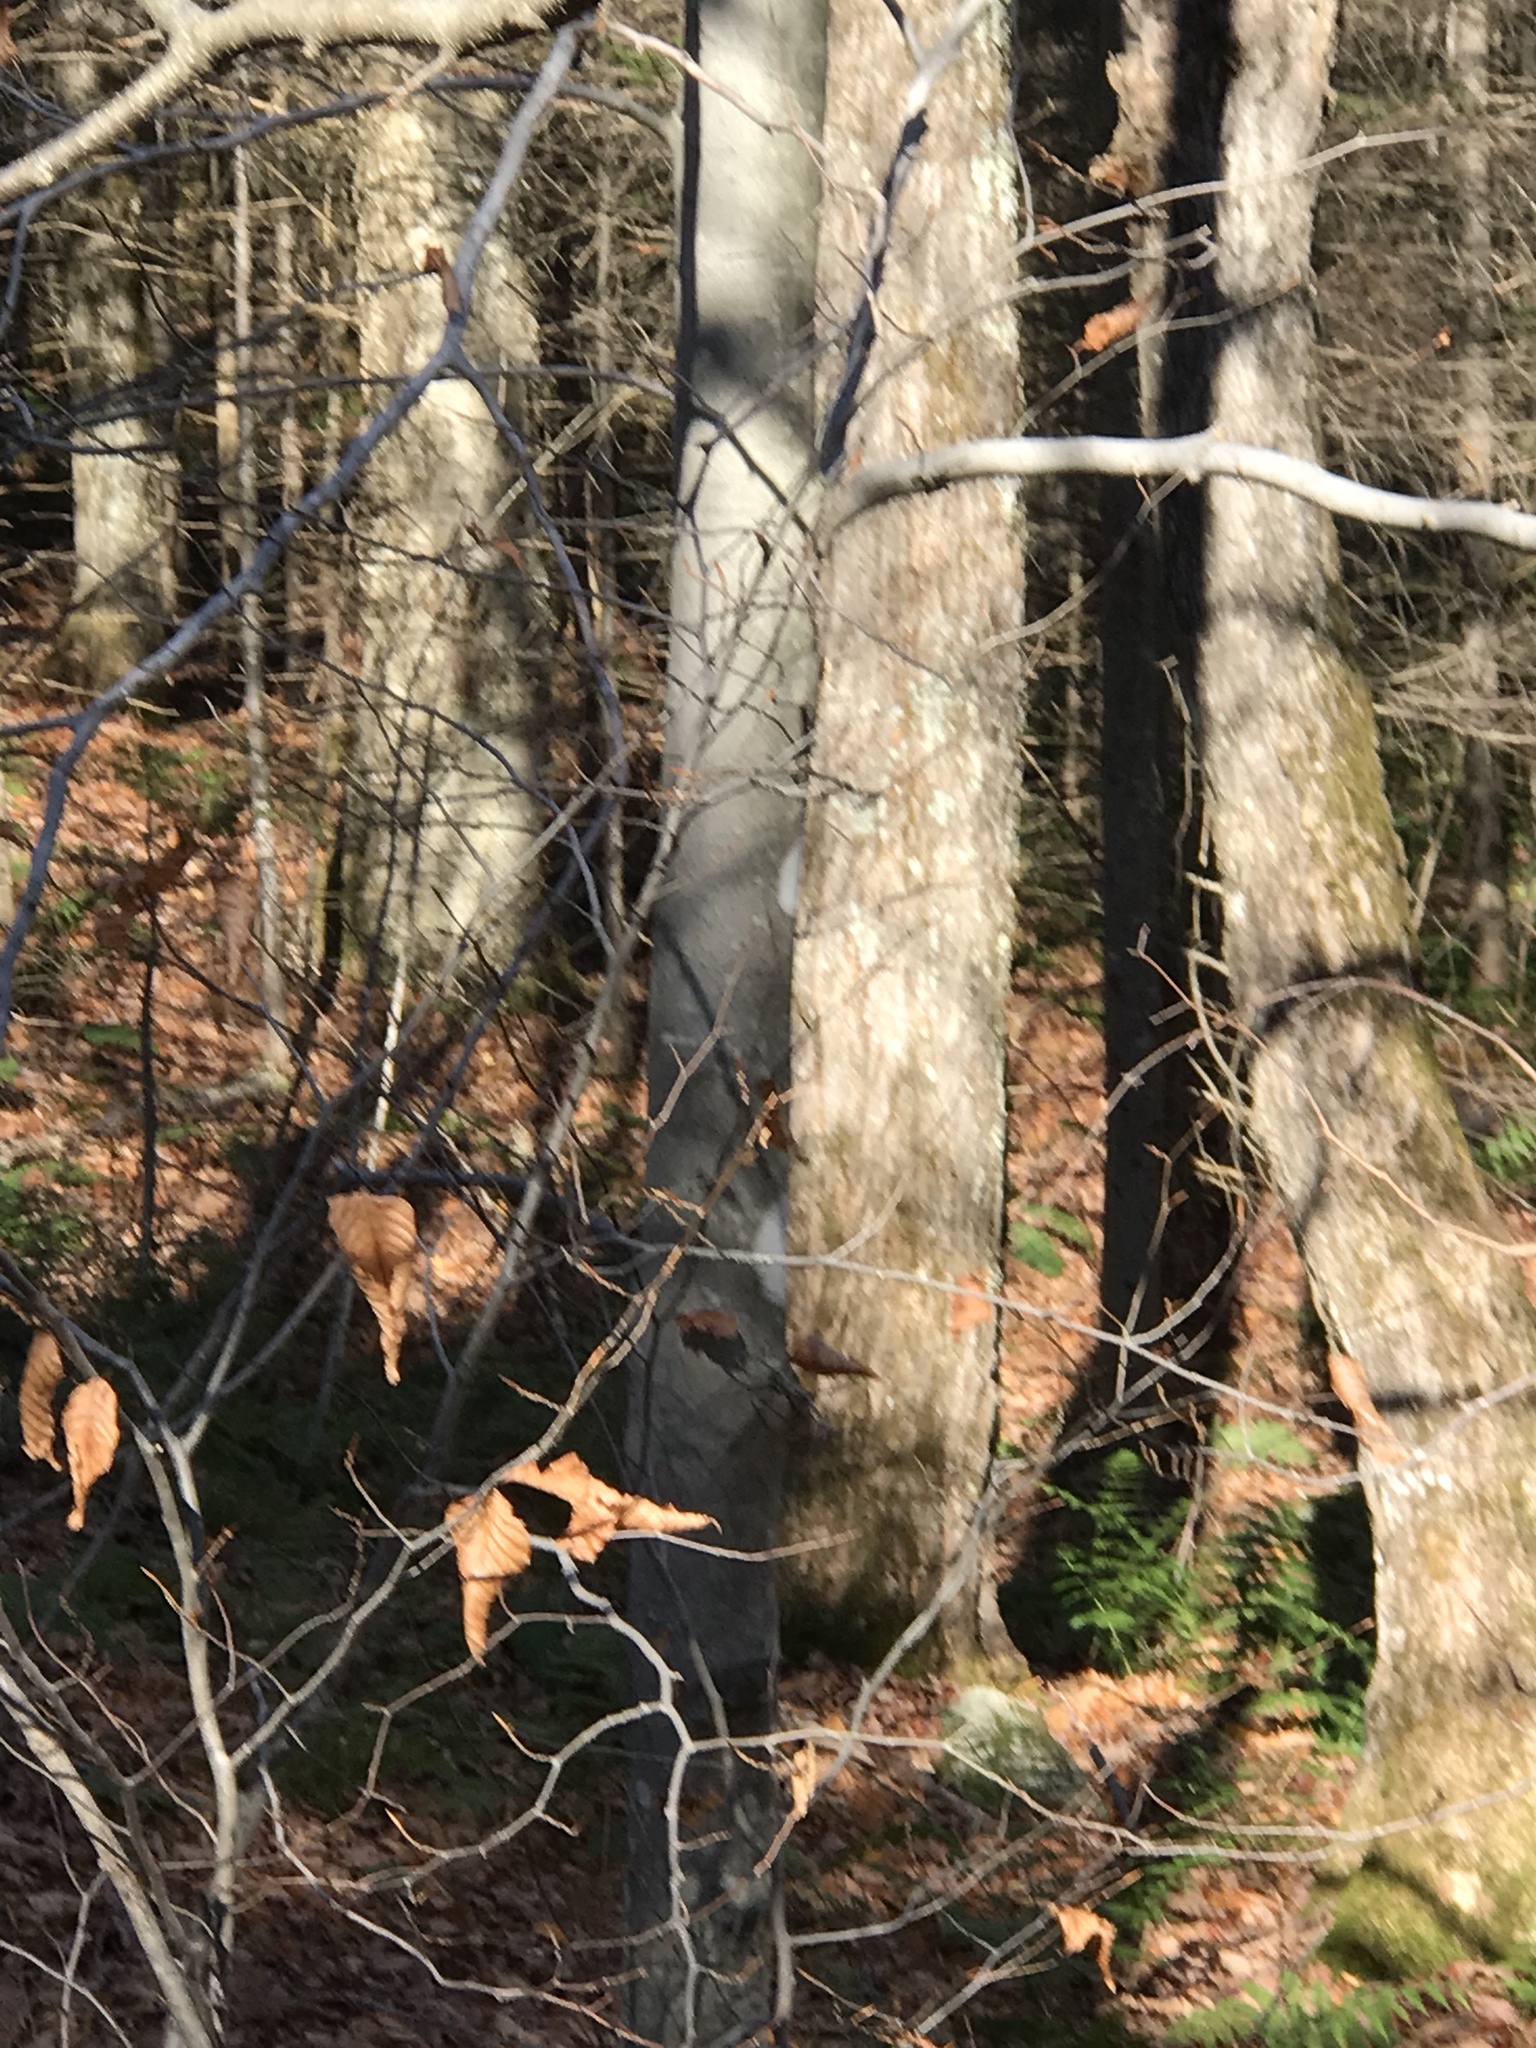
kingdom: Plantae
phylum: Tracheophyta
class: Magnoliopsida
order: Fagales
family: Fagaceae
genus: Fagus
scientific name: Fagus grandifolia
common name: American beech
